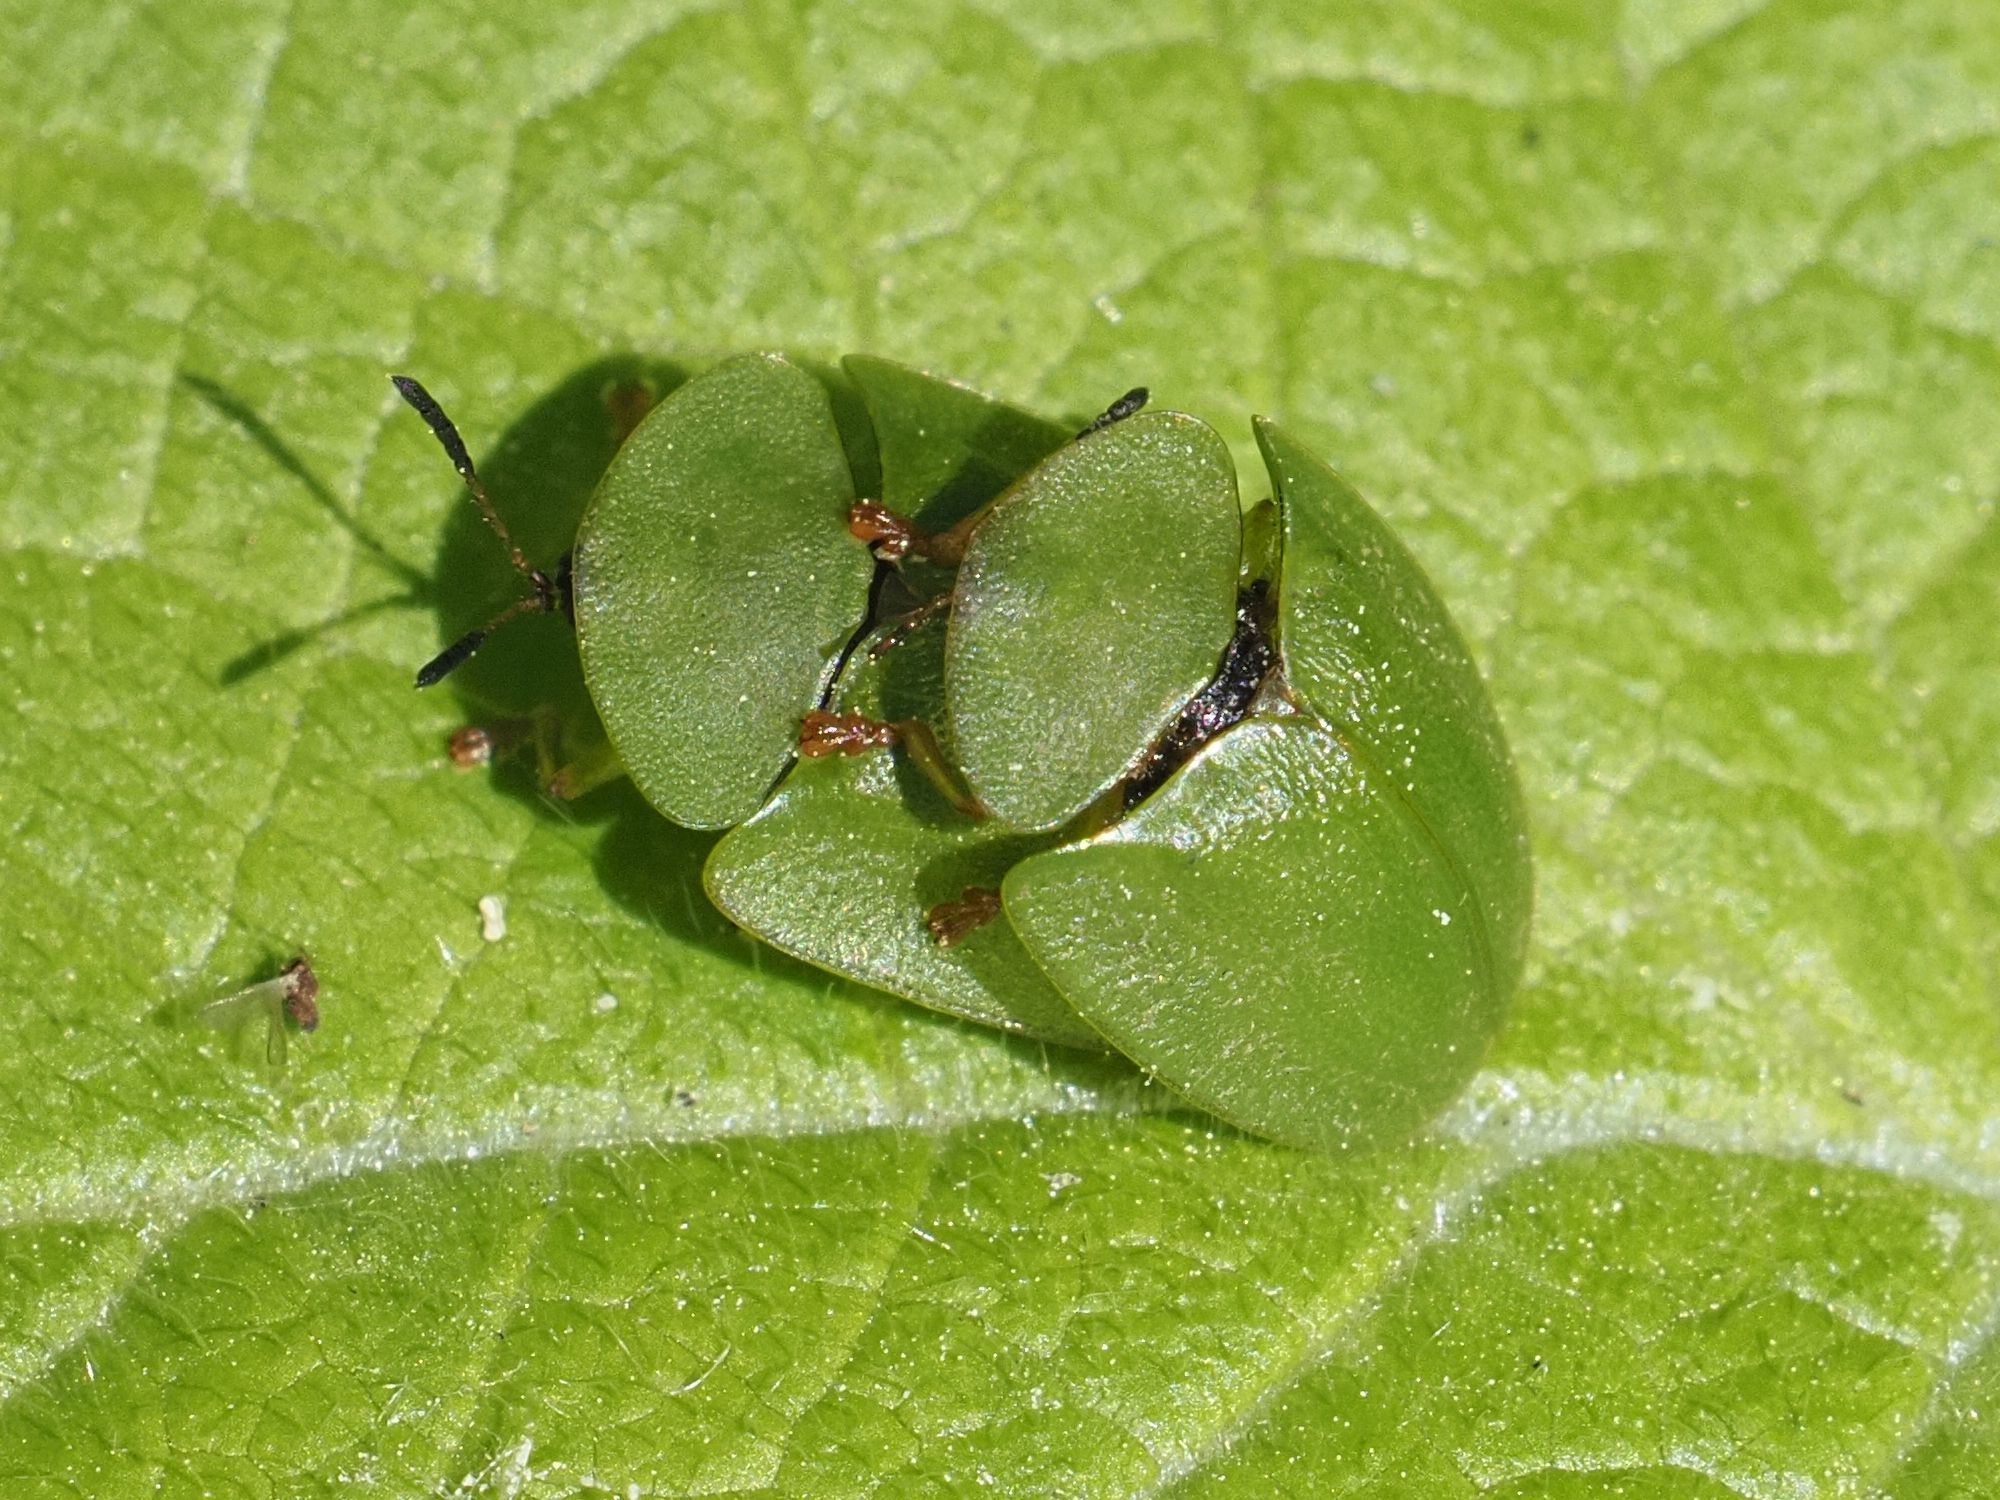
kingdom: Animalia
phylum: Arthropoda
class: Insecta
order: Coleoptera
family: Chrysomelidae
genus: Cassida
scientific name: Cassida viridis
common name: Green tortoise beetle
